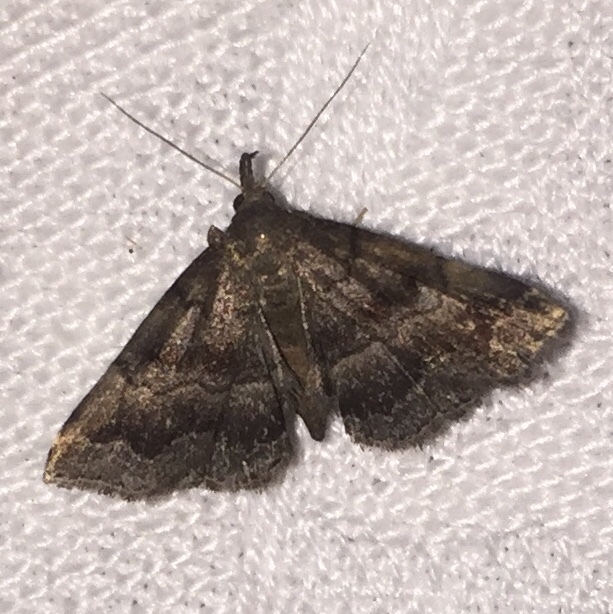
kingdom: Animalia
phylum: Arthropoda
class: Insecta
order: Lepidoptera
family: Erebidae
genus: Phalaenostola
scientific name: Phalaenostola larentioides
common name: Black-banded owlet
